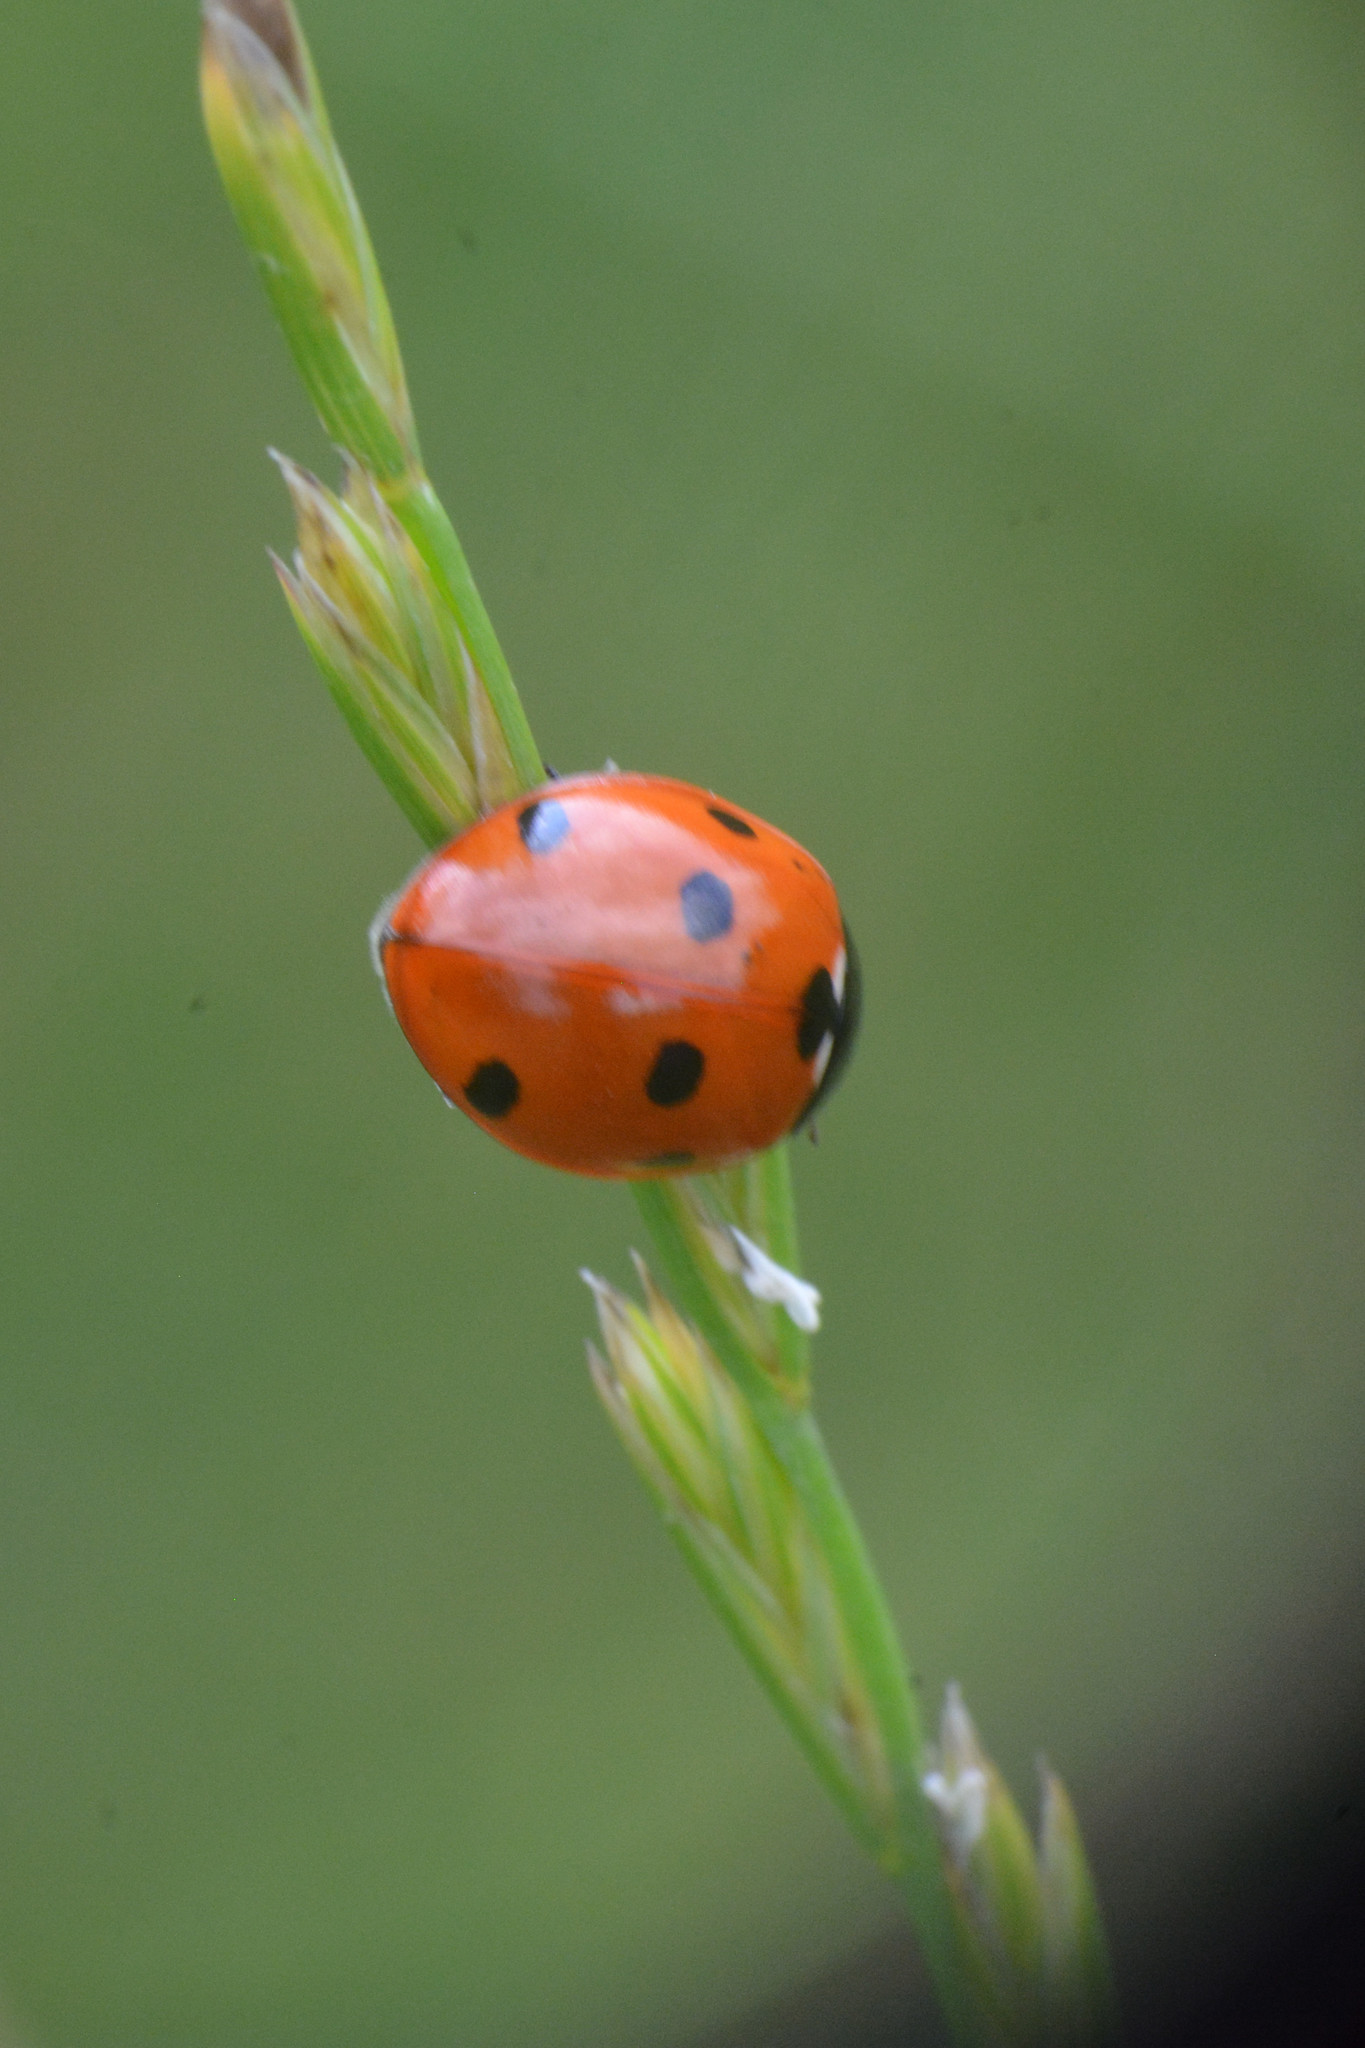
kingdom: Animalia
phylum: Arthropoda
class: Insecta
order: Coleoptera
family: Coccinellidae
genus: Coccinella
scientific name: Coccinella septempunctata
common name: Sevenspotted lady beetle
